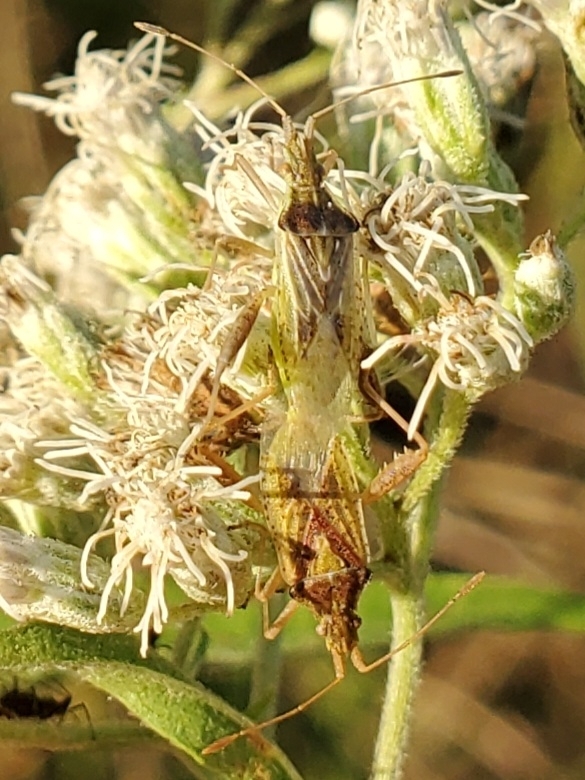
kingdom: Animalia
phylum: Arthropoda
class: Insecta
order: Hemiptera
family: Rhopalidae
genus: Harmostes
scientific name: Harmostes reflexulus
